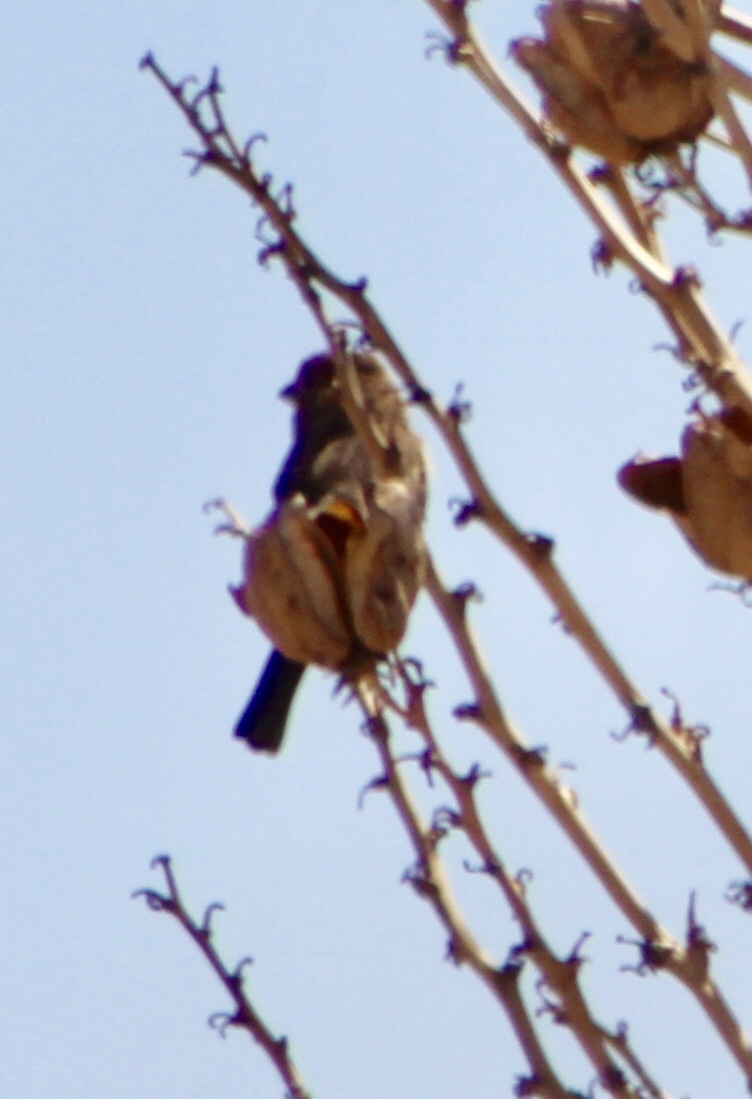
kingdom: Animalia
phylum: Chordata
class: Aves
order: Passeriformes
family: Fringillidae
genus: Haemorhous
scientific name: Haemorhous mexicanus
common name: House finch
